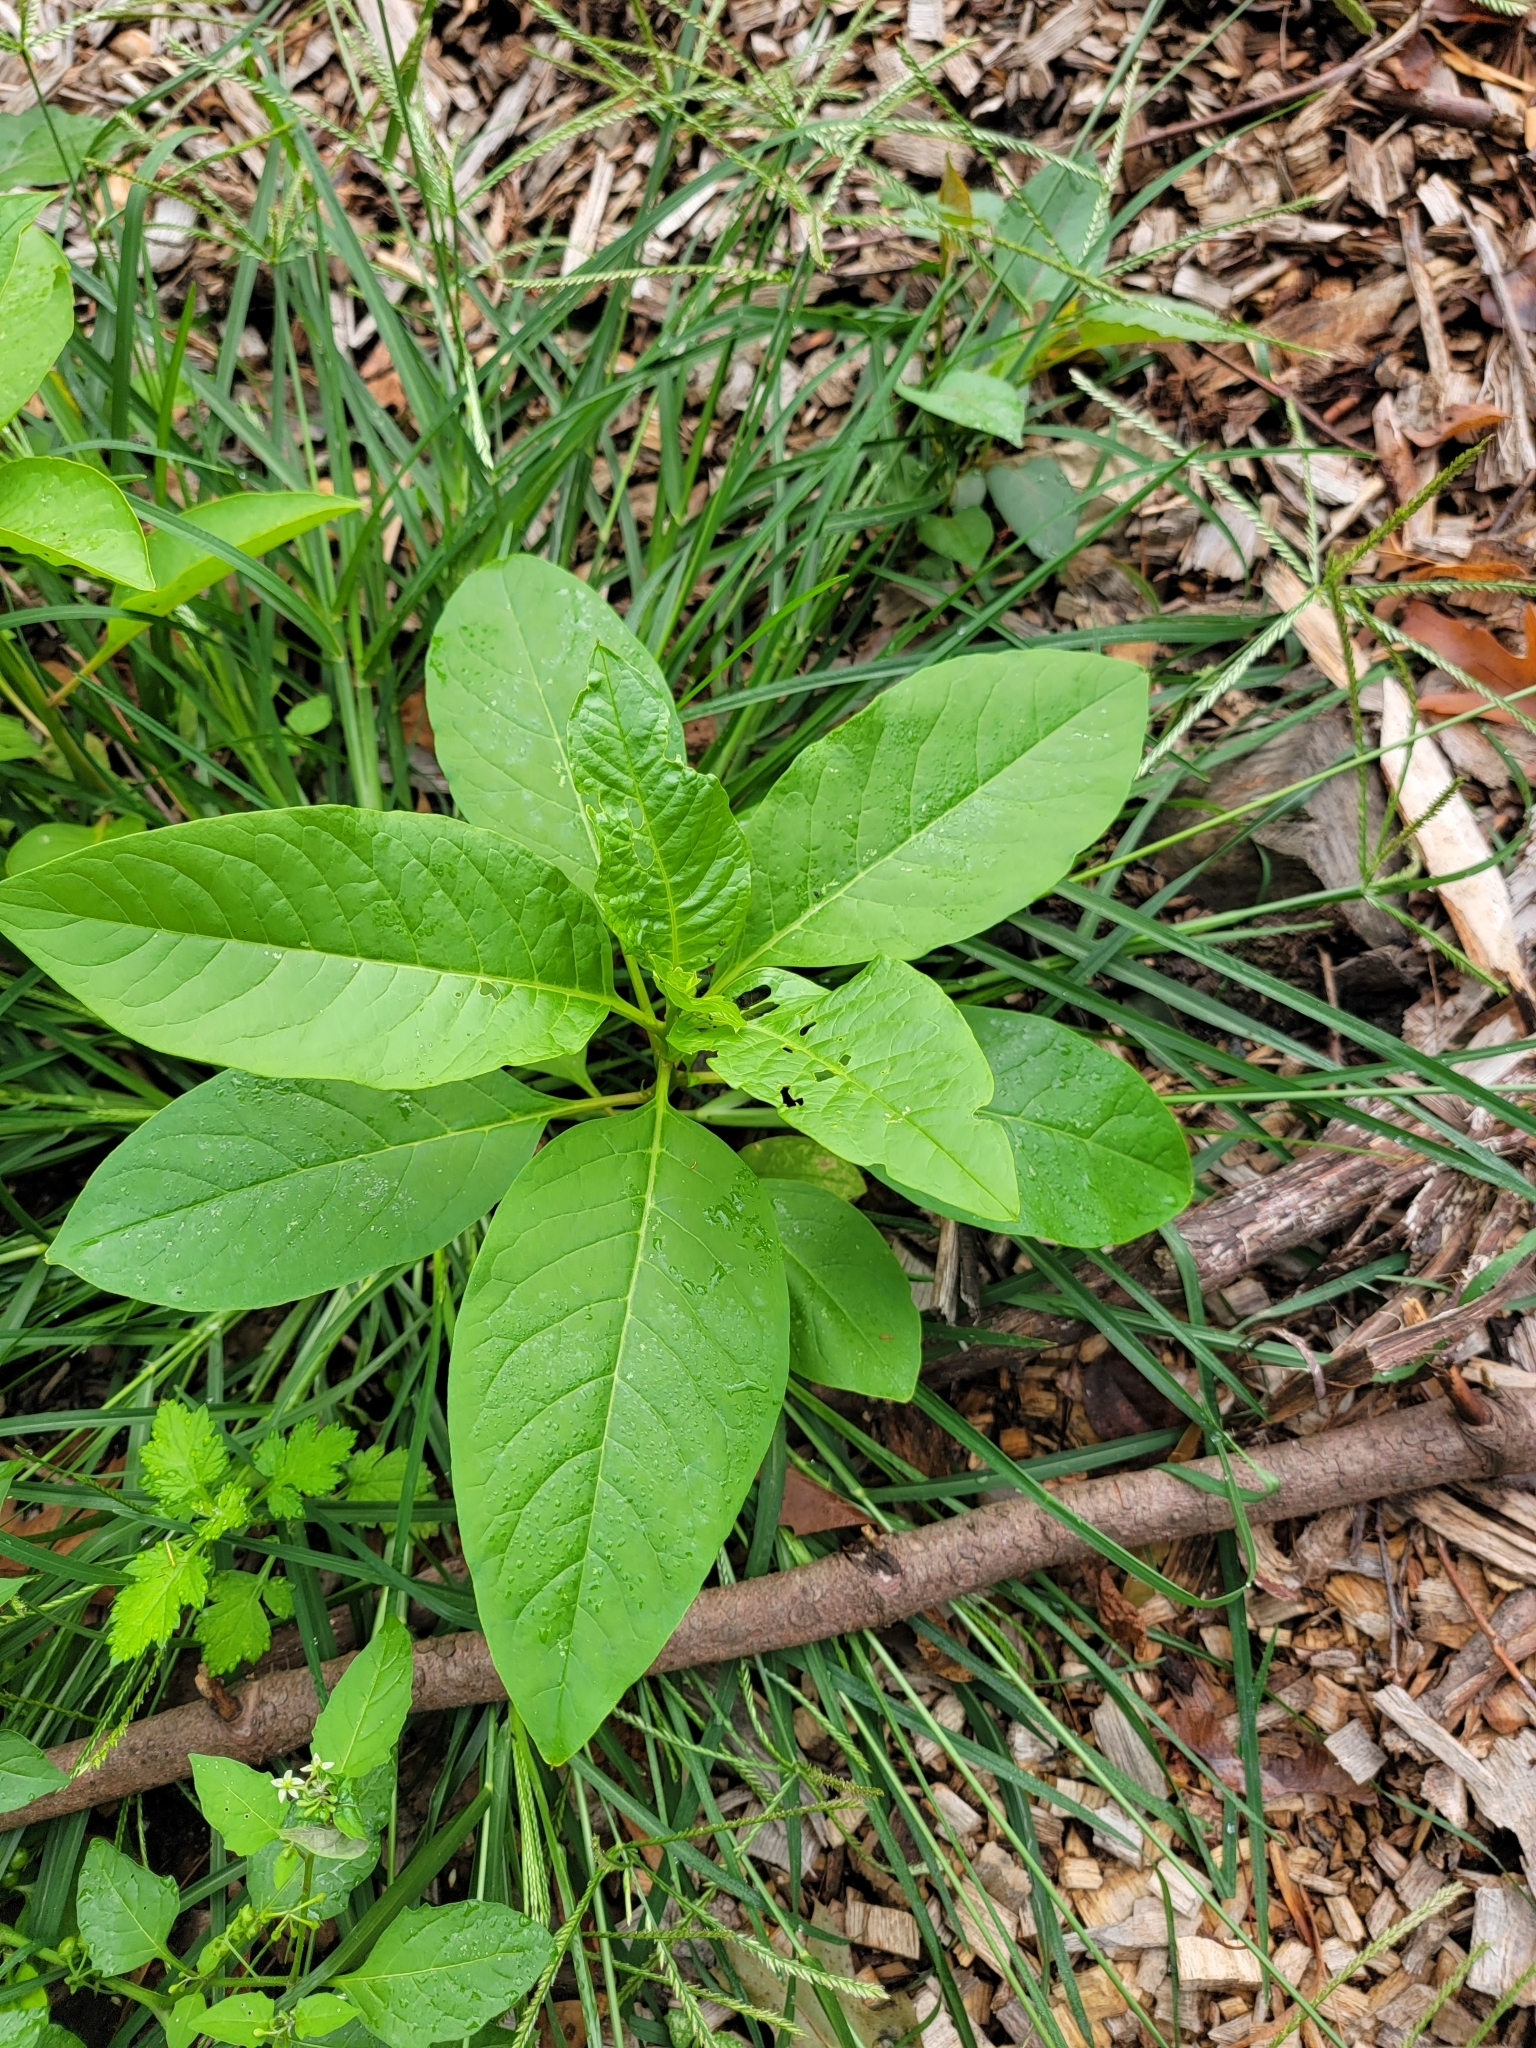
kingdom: Plantae
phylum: Tracheophyta
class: Magnoliopsida
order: Caryophyllales
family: Phytolaccaceae
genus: Phytolacca
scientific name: Phytolacca americana
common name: American pokeweed
